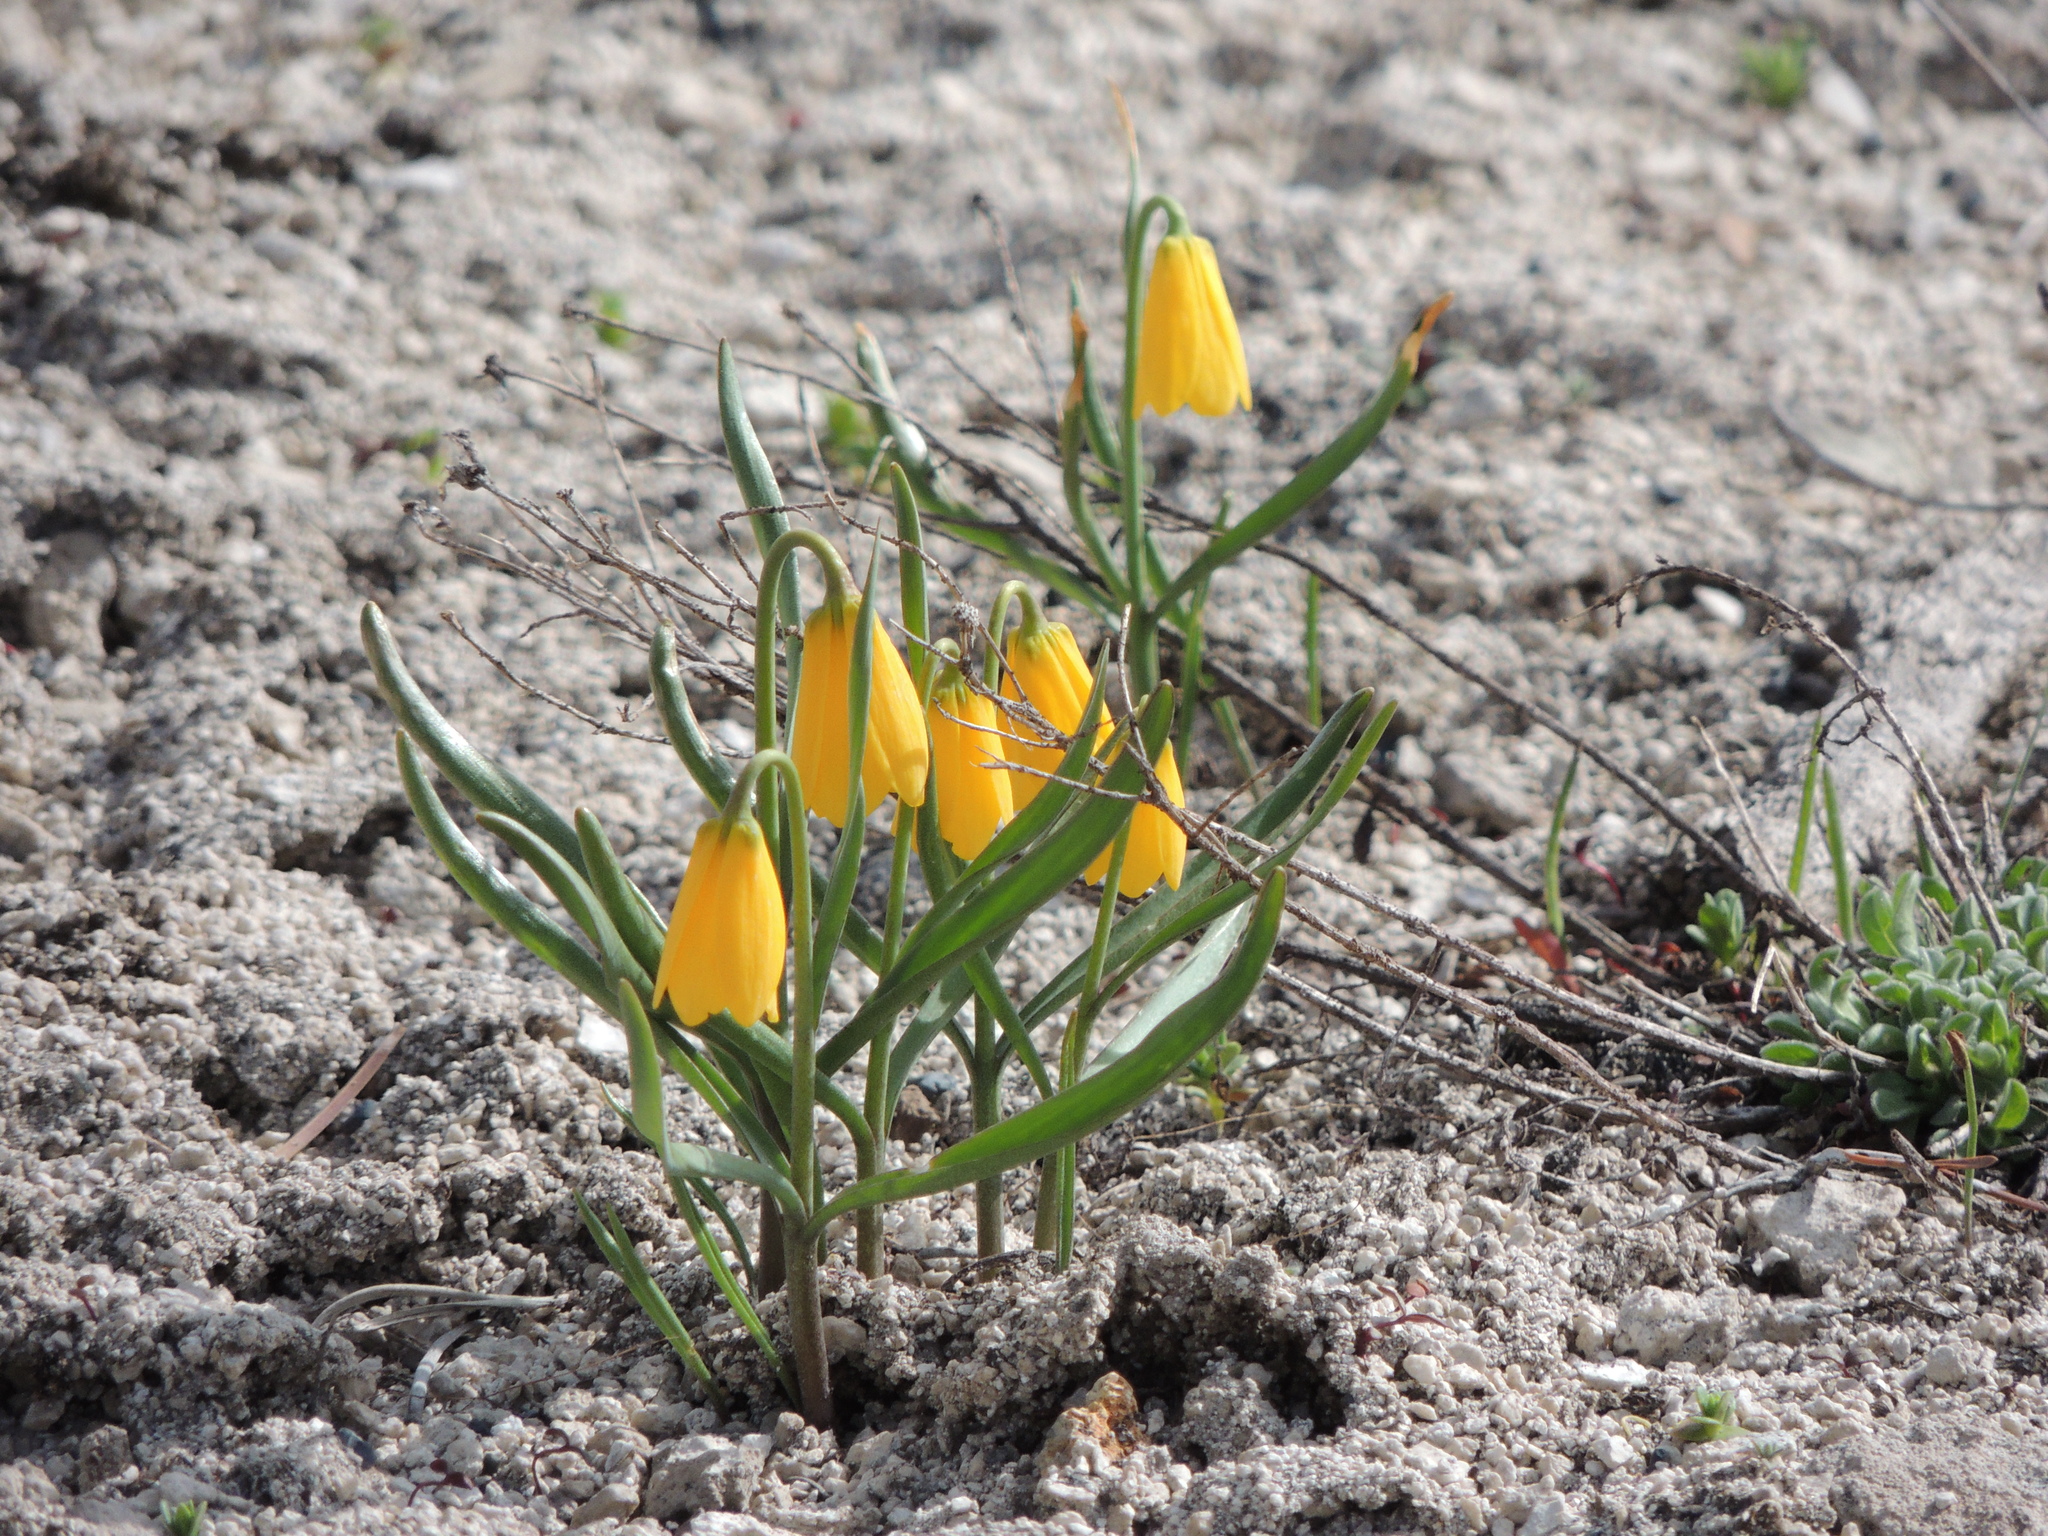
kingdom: Plantae
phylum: Tracheophyta
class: Liliopsida
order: Liliales
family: Liliaceae
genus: Fritillaria
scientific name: Fritillaria pudica
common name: Yellow fritillary
